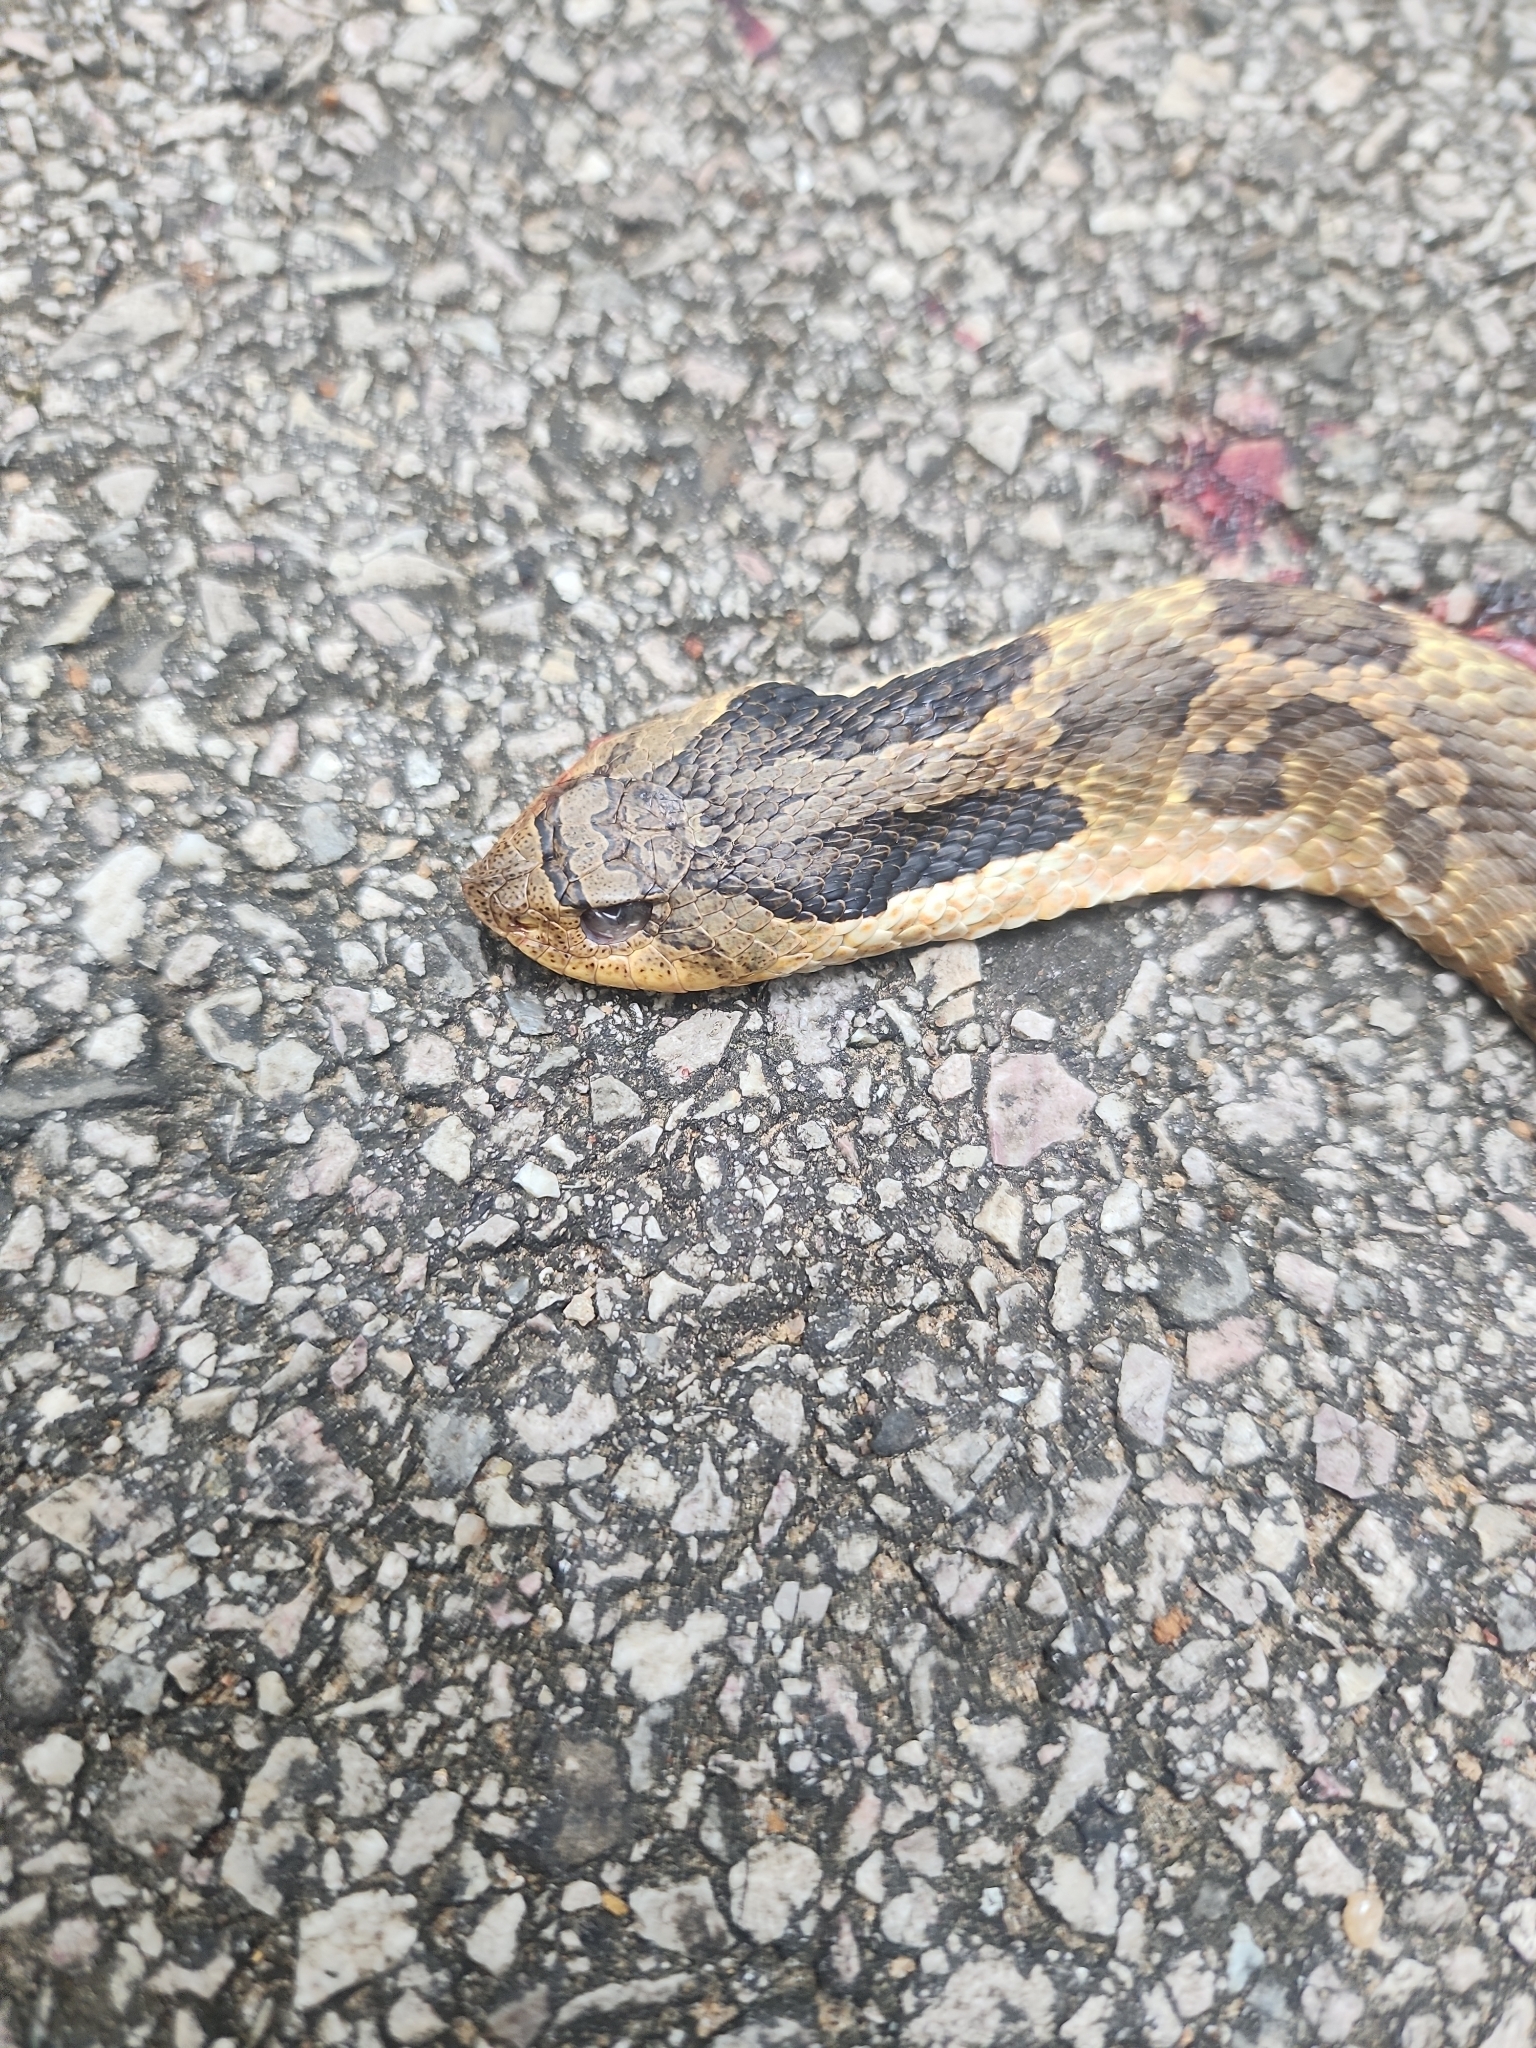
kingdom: Animalia
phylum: Chordata
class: Squamata
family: Colubridae
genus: Heterodon
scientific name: Heterodon platirhinos
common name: Eastern hognose snake
